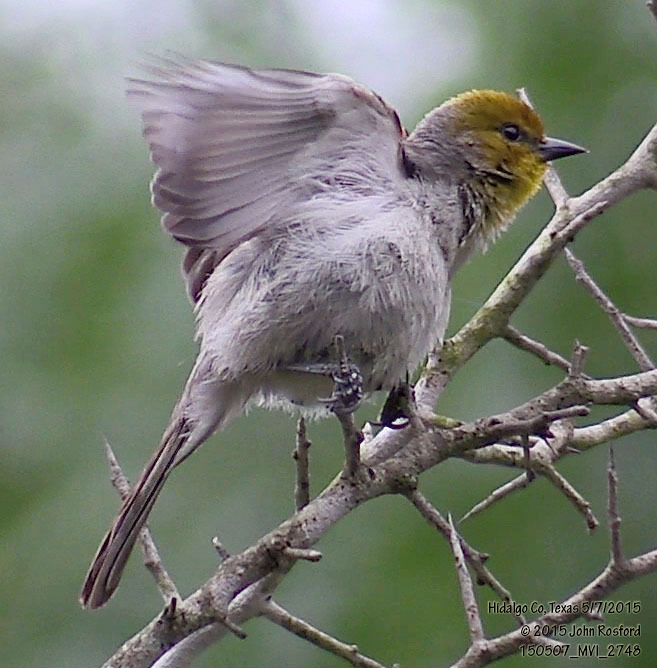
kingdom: Animalia
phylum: Chordata
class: Aves
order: Passeriformes
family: Remizidae
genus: Auriparus
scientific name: Auriparus flaviceps
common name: Verdin
